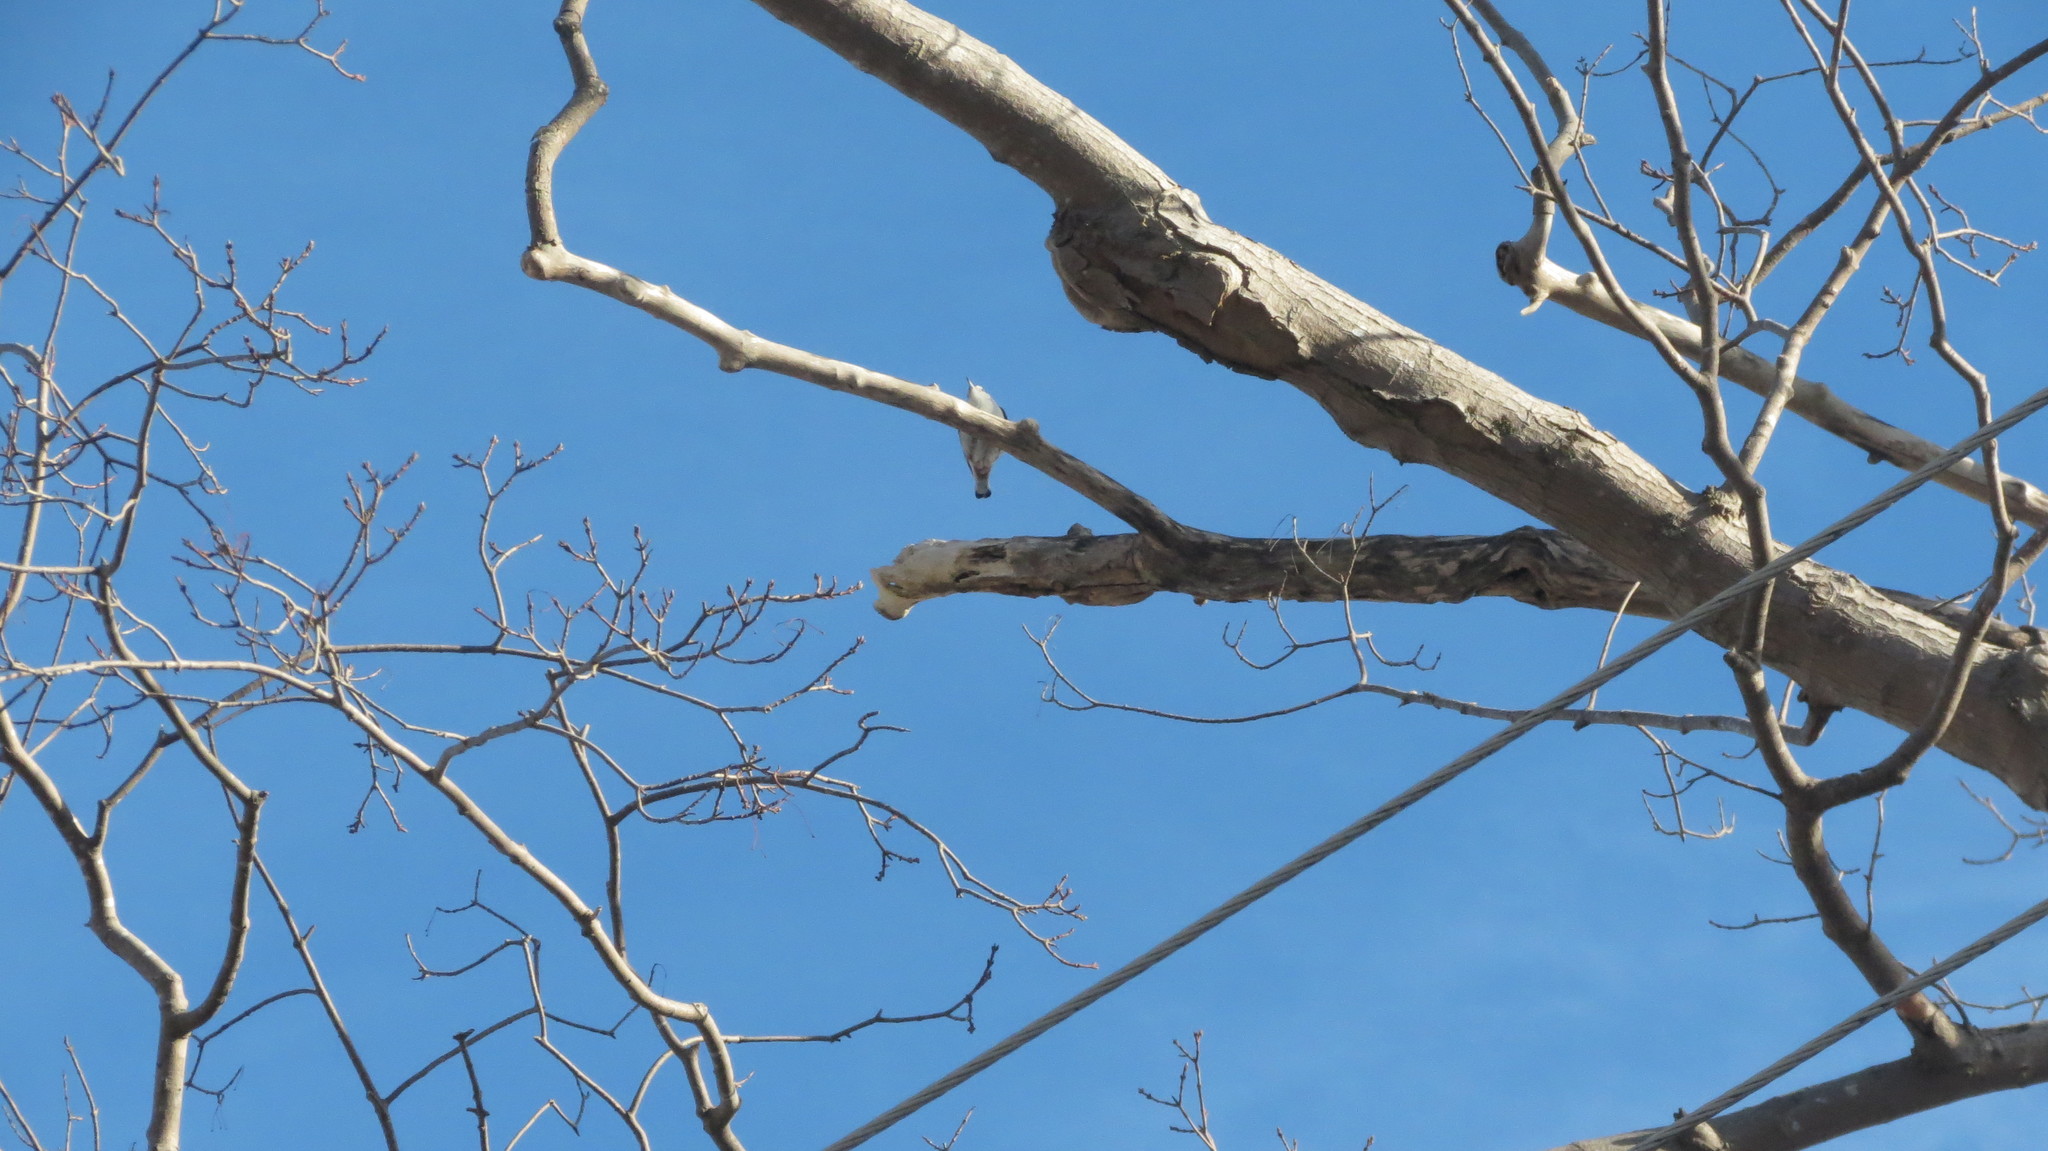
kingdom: Animalia
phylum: Chordata
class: Aves
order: Passeriformes
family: Sittidae
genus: Sitta
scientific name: Sitta carolinensis
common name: White-breasted nuthatch
